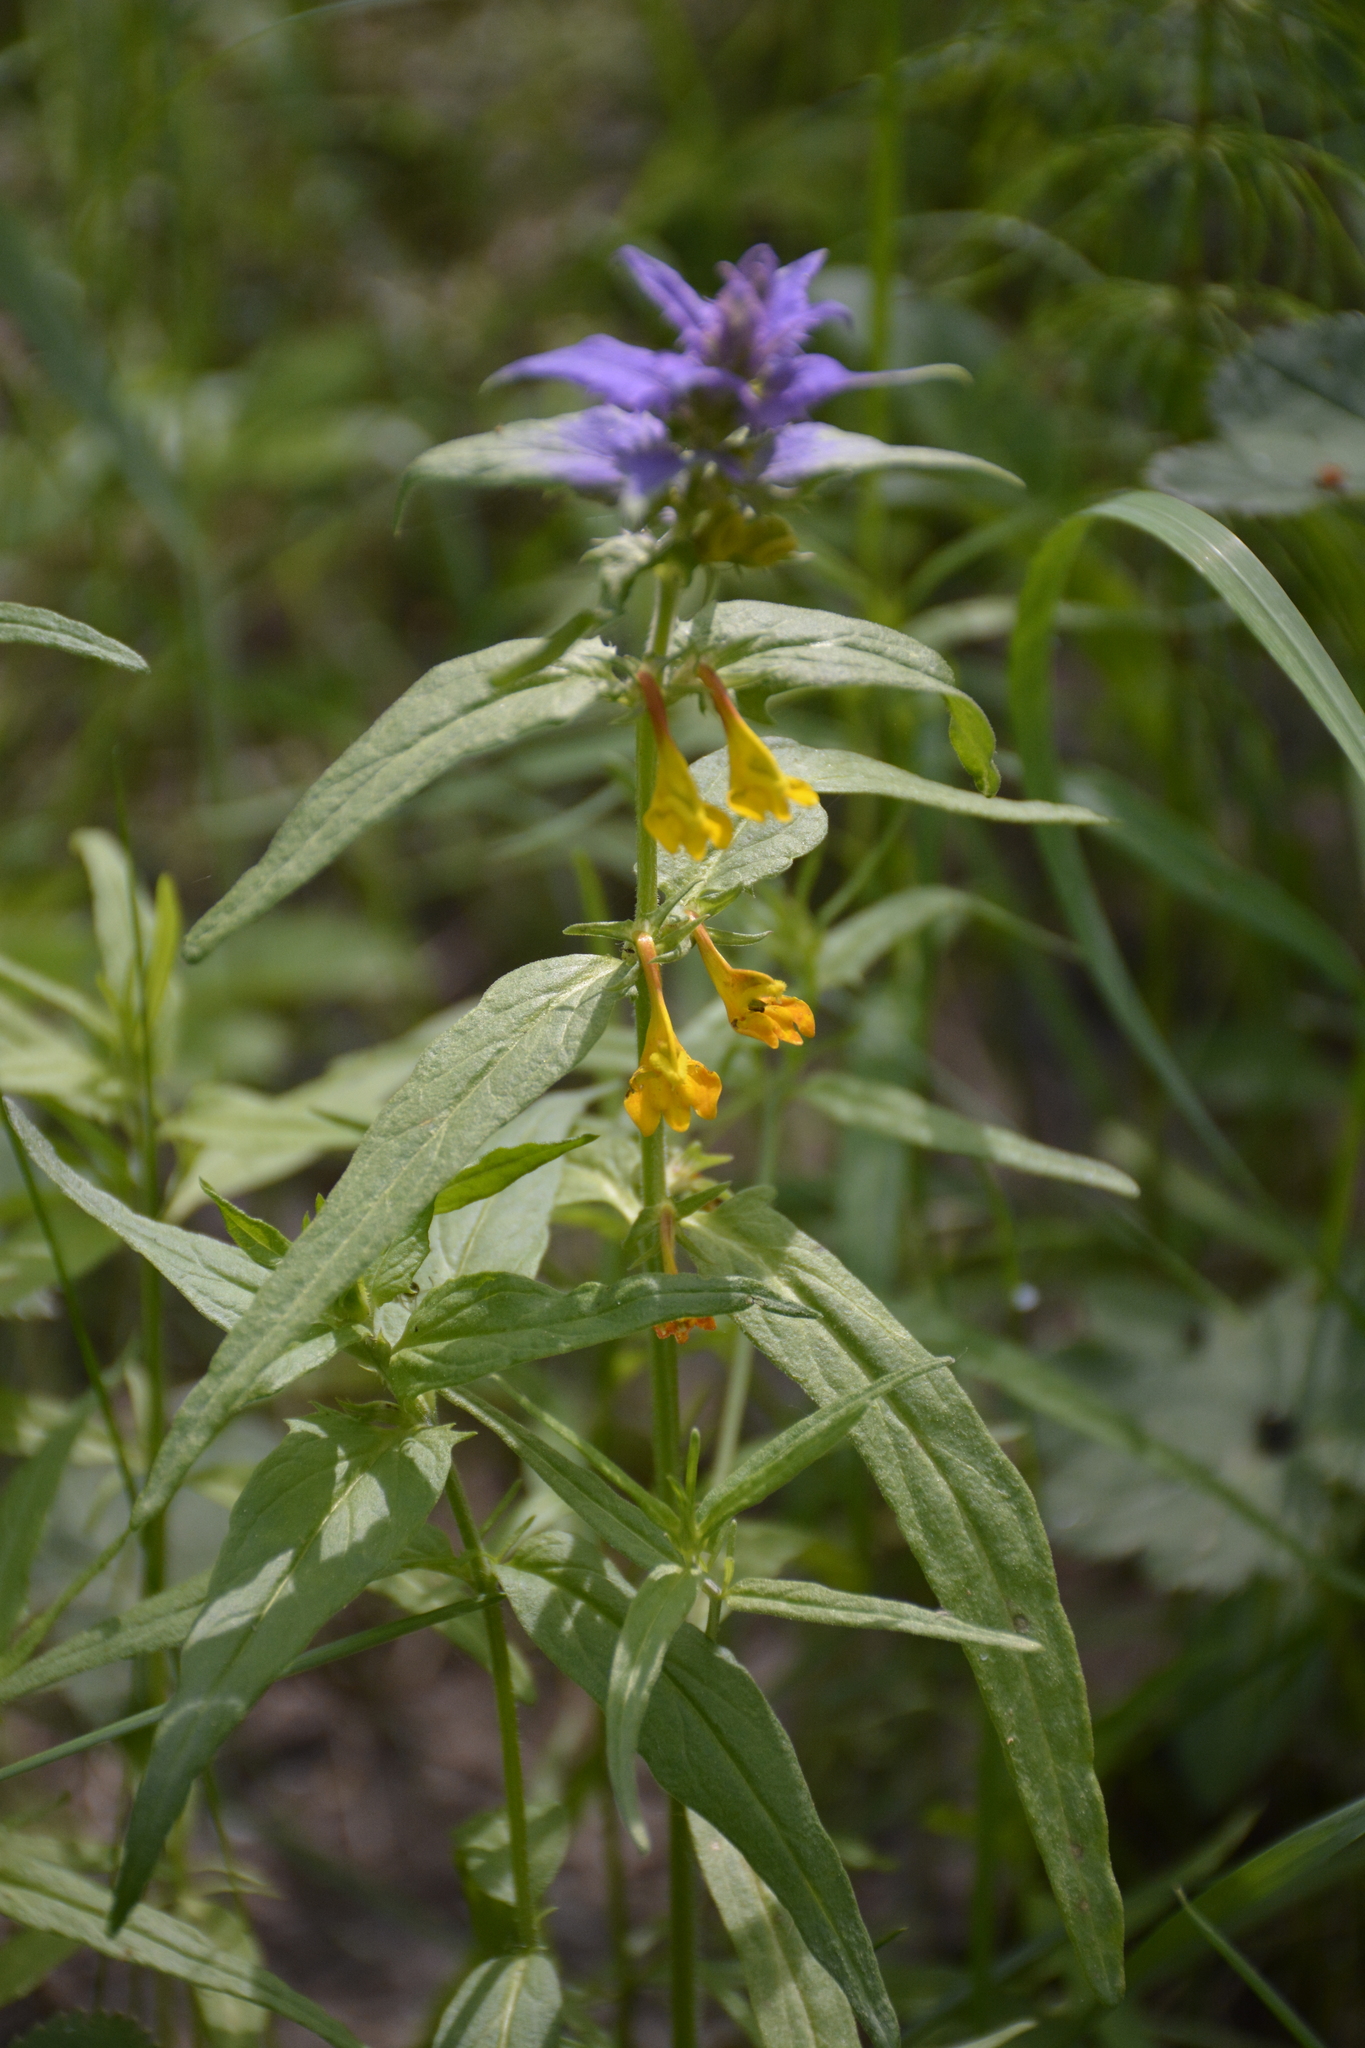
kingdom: Plantae
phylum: Tracheophyta
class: Magnoliopsida
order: Lamiales
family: Orobanchaceae
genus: Melampyrum
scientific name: Melampyrum nemorosum
